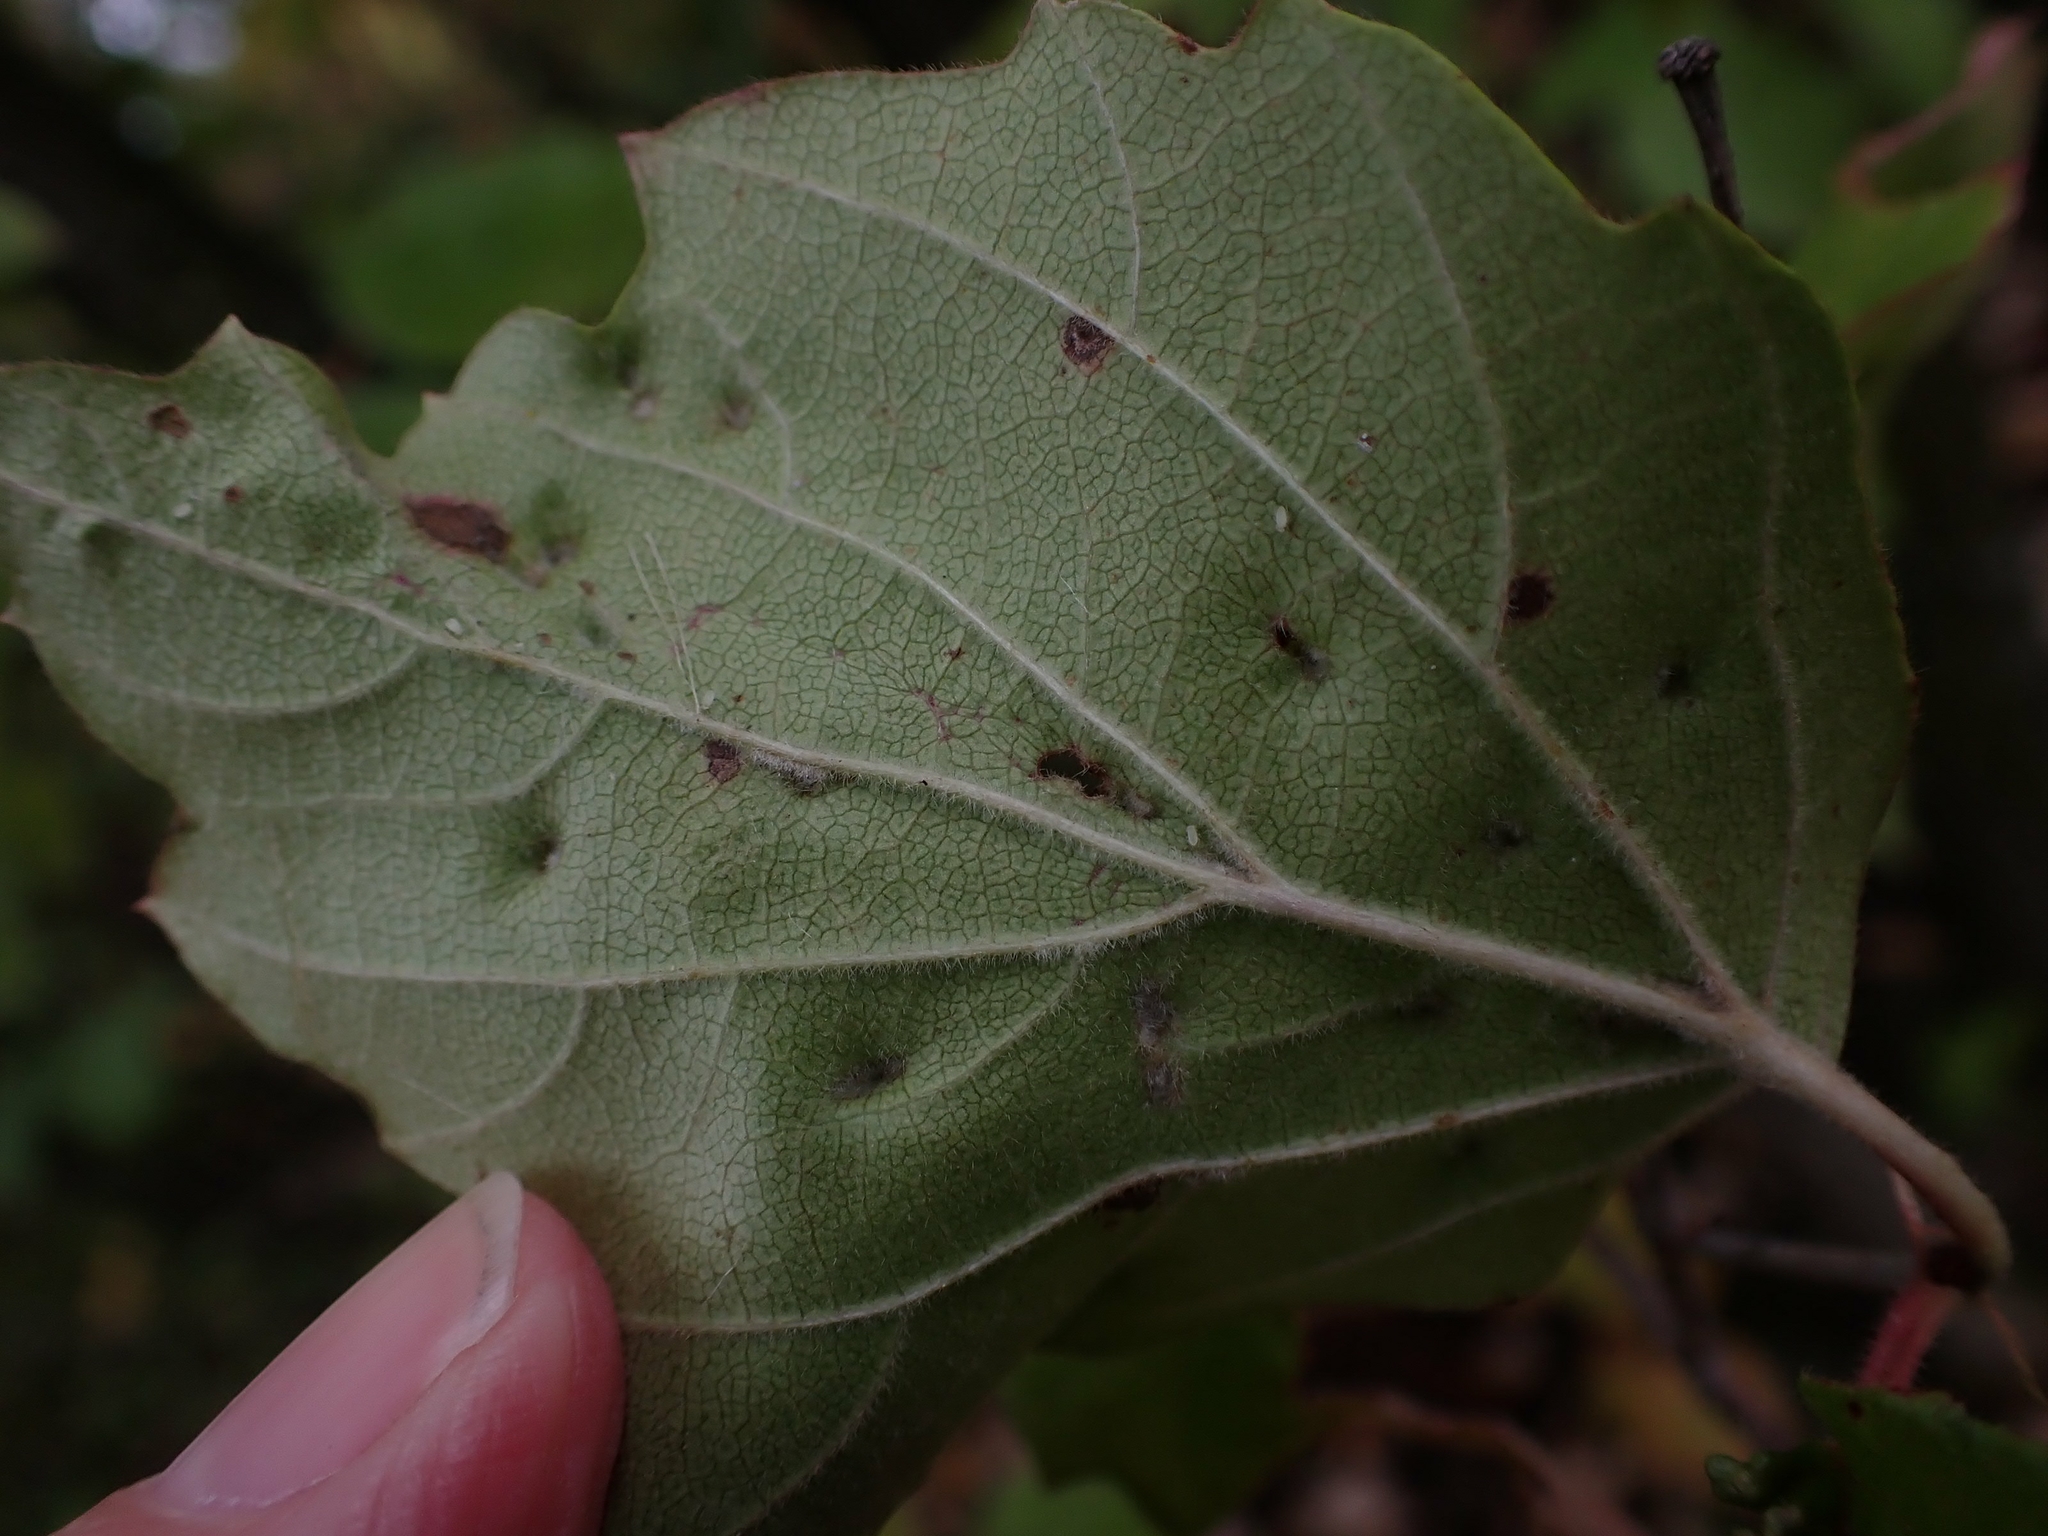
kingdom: Animalia
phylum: Arthropoda
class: Arachnida
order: Trombidiformes
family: Eriophyidae
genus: Eriophyes
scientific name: Eriophyes
